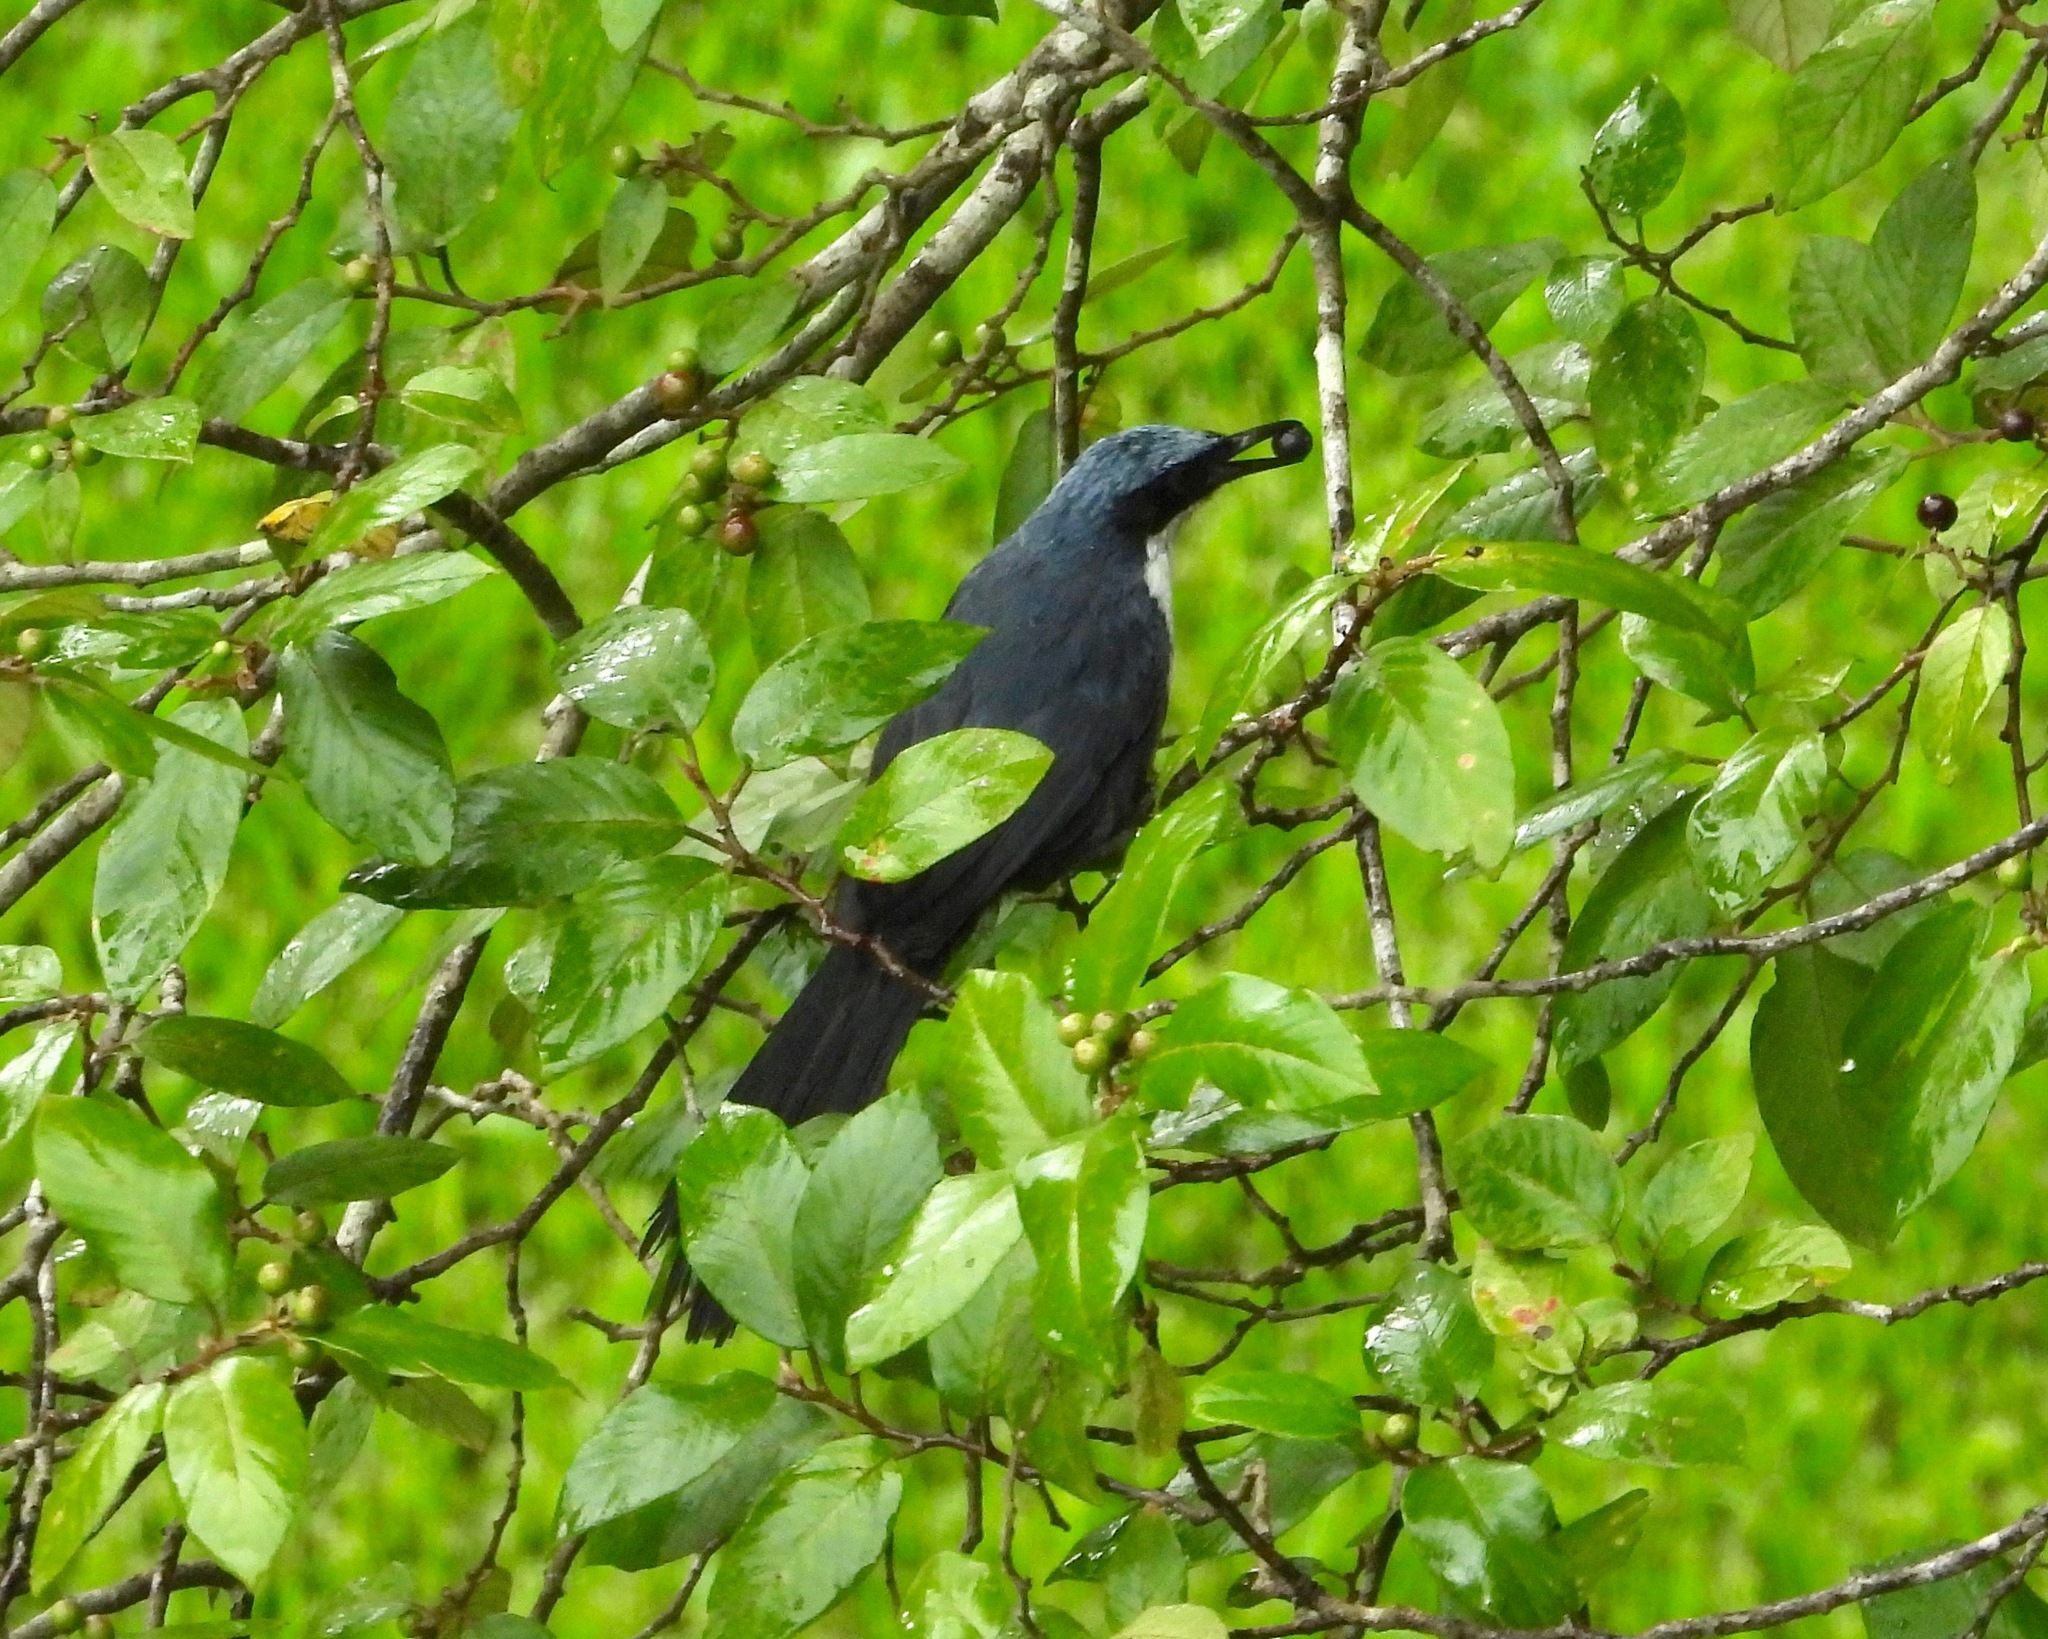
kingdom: Animalia
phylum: Chordata
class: Aves
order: Passeriformes
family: Mimidae
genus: Melanotis
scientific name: Melanotis hypoleucus
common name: Blue-and-white mockingbird
